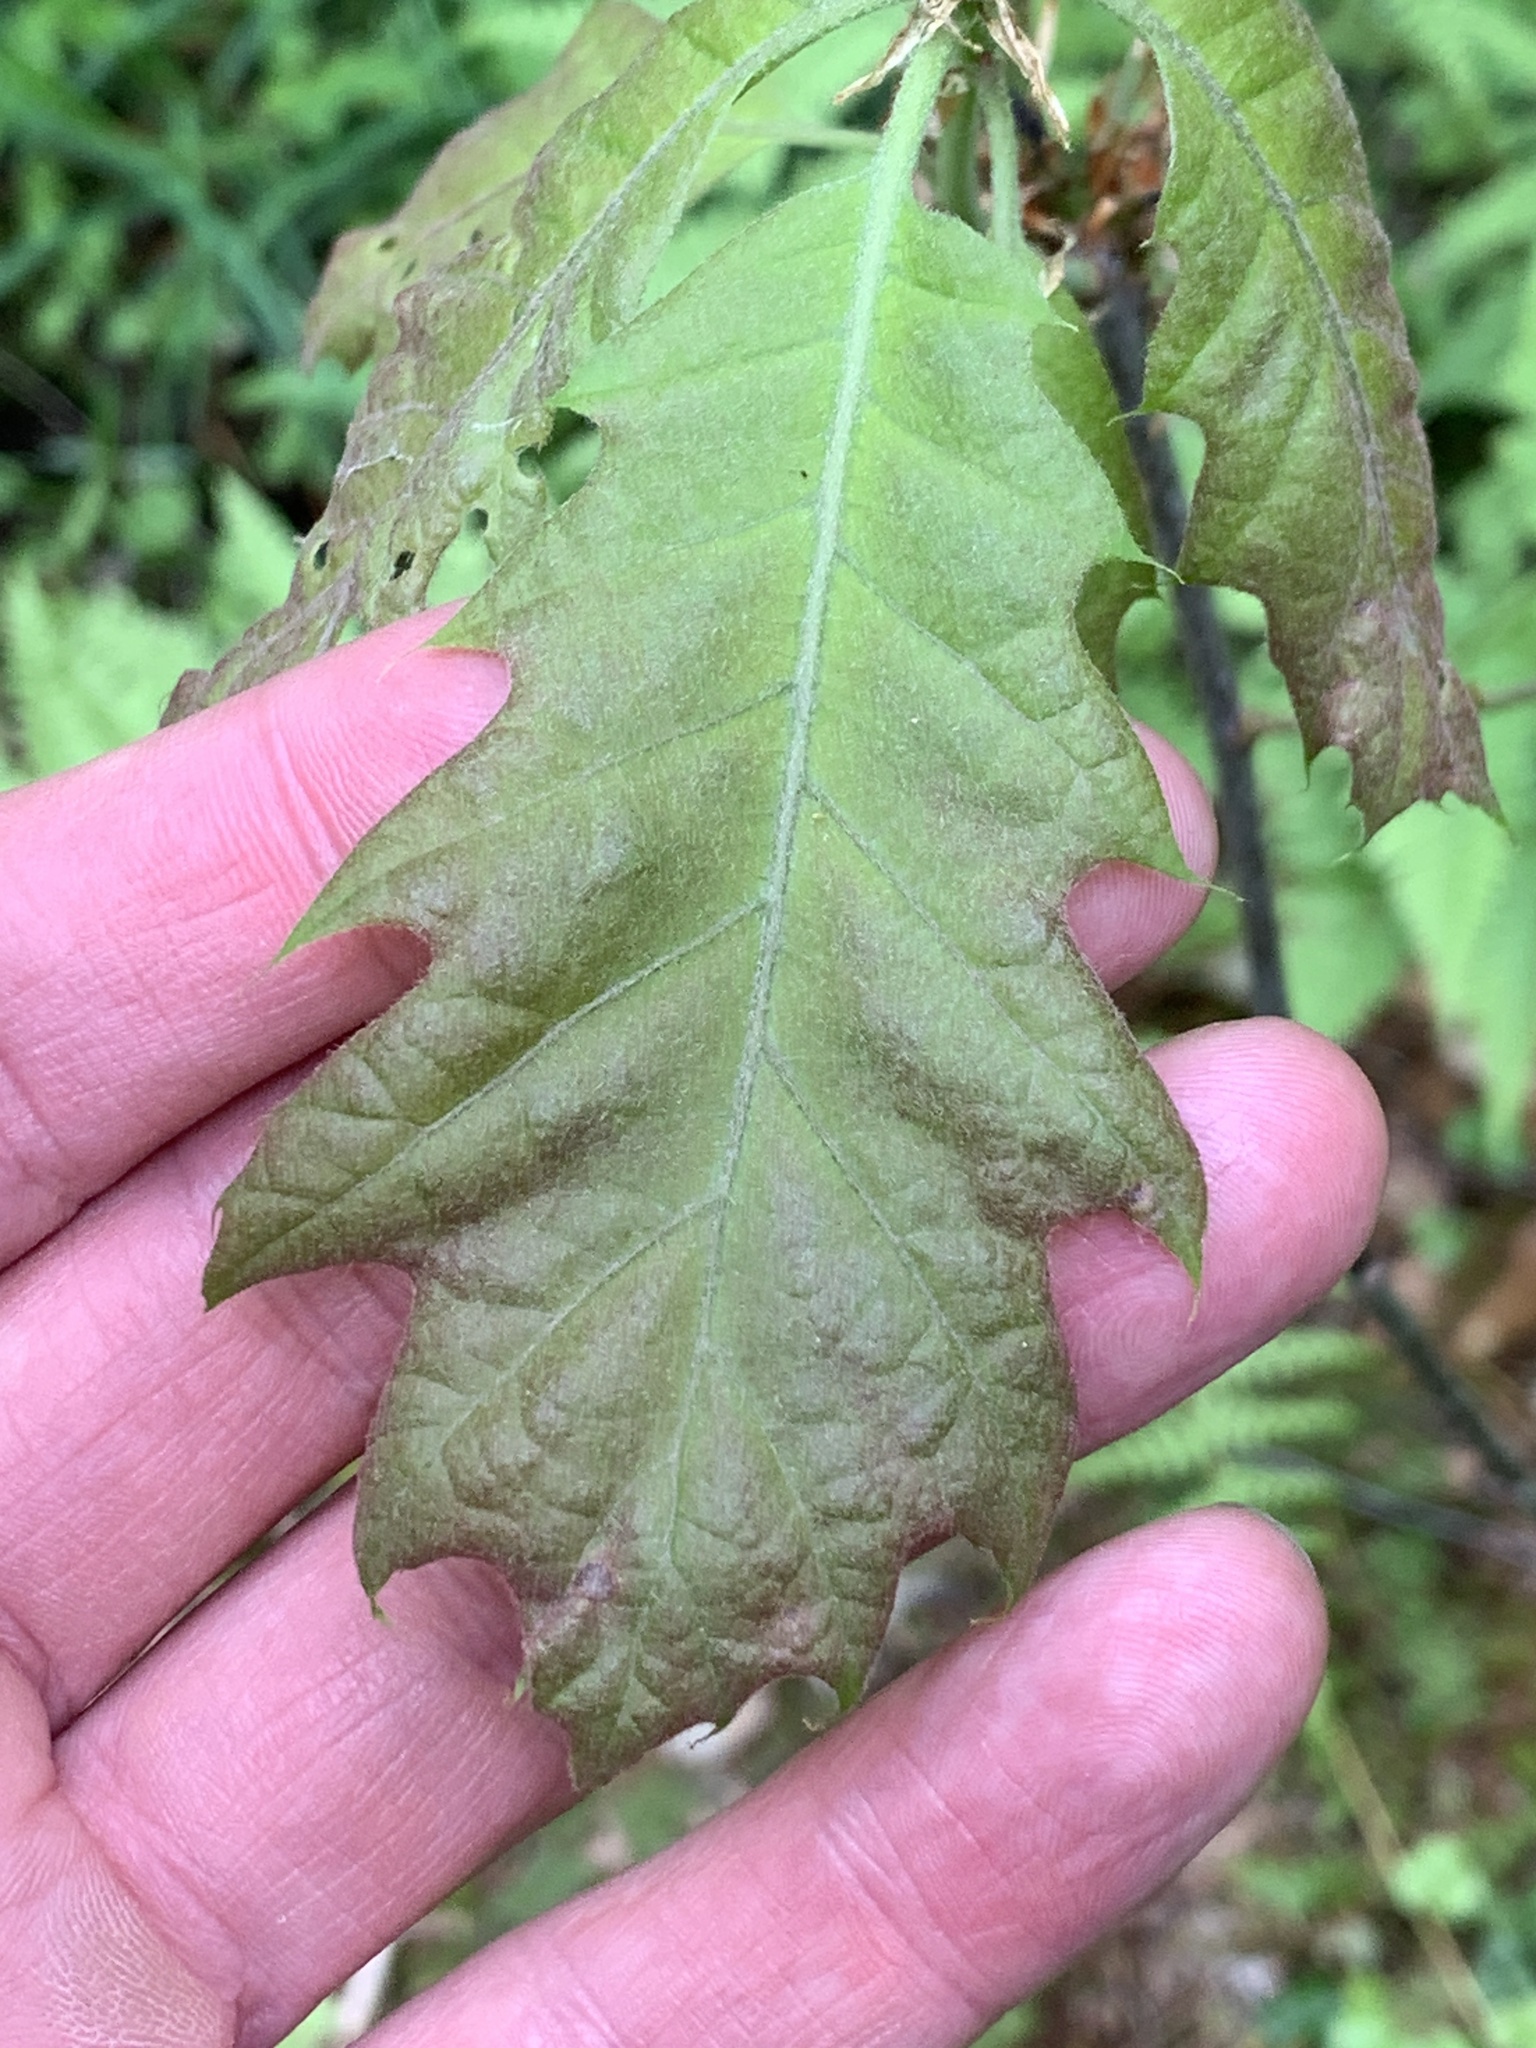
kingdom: Plantae
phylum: Tracheophyta
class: Magnoliopsida
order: Fagales
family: Fagaceae
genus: Quercus
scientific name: Quercus rubra
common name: Red oak
